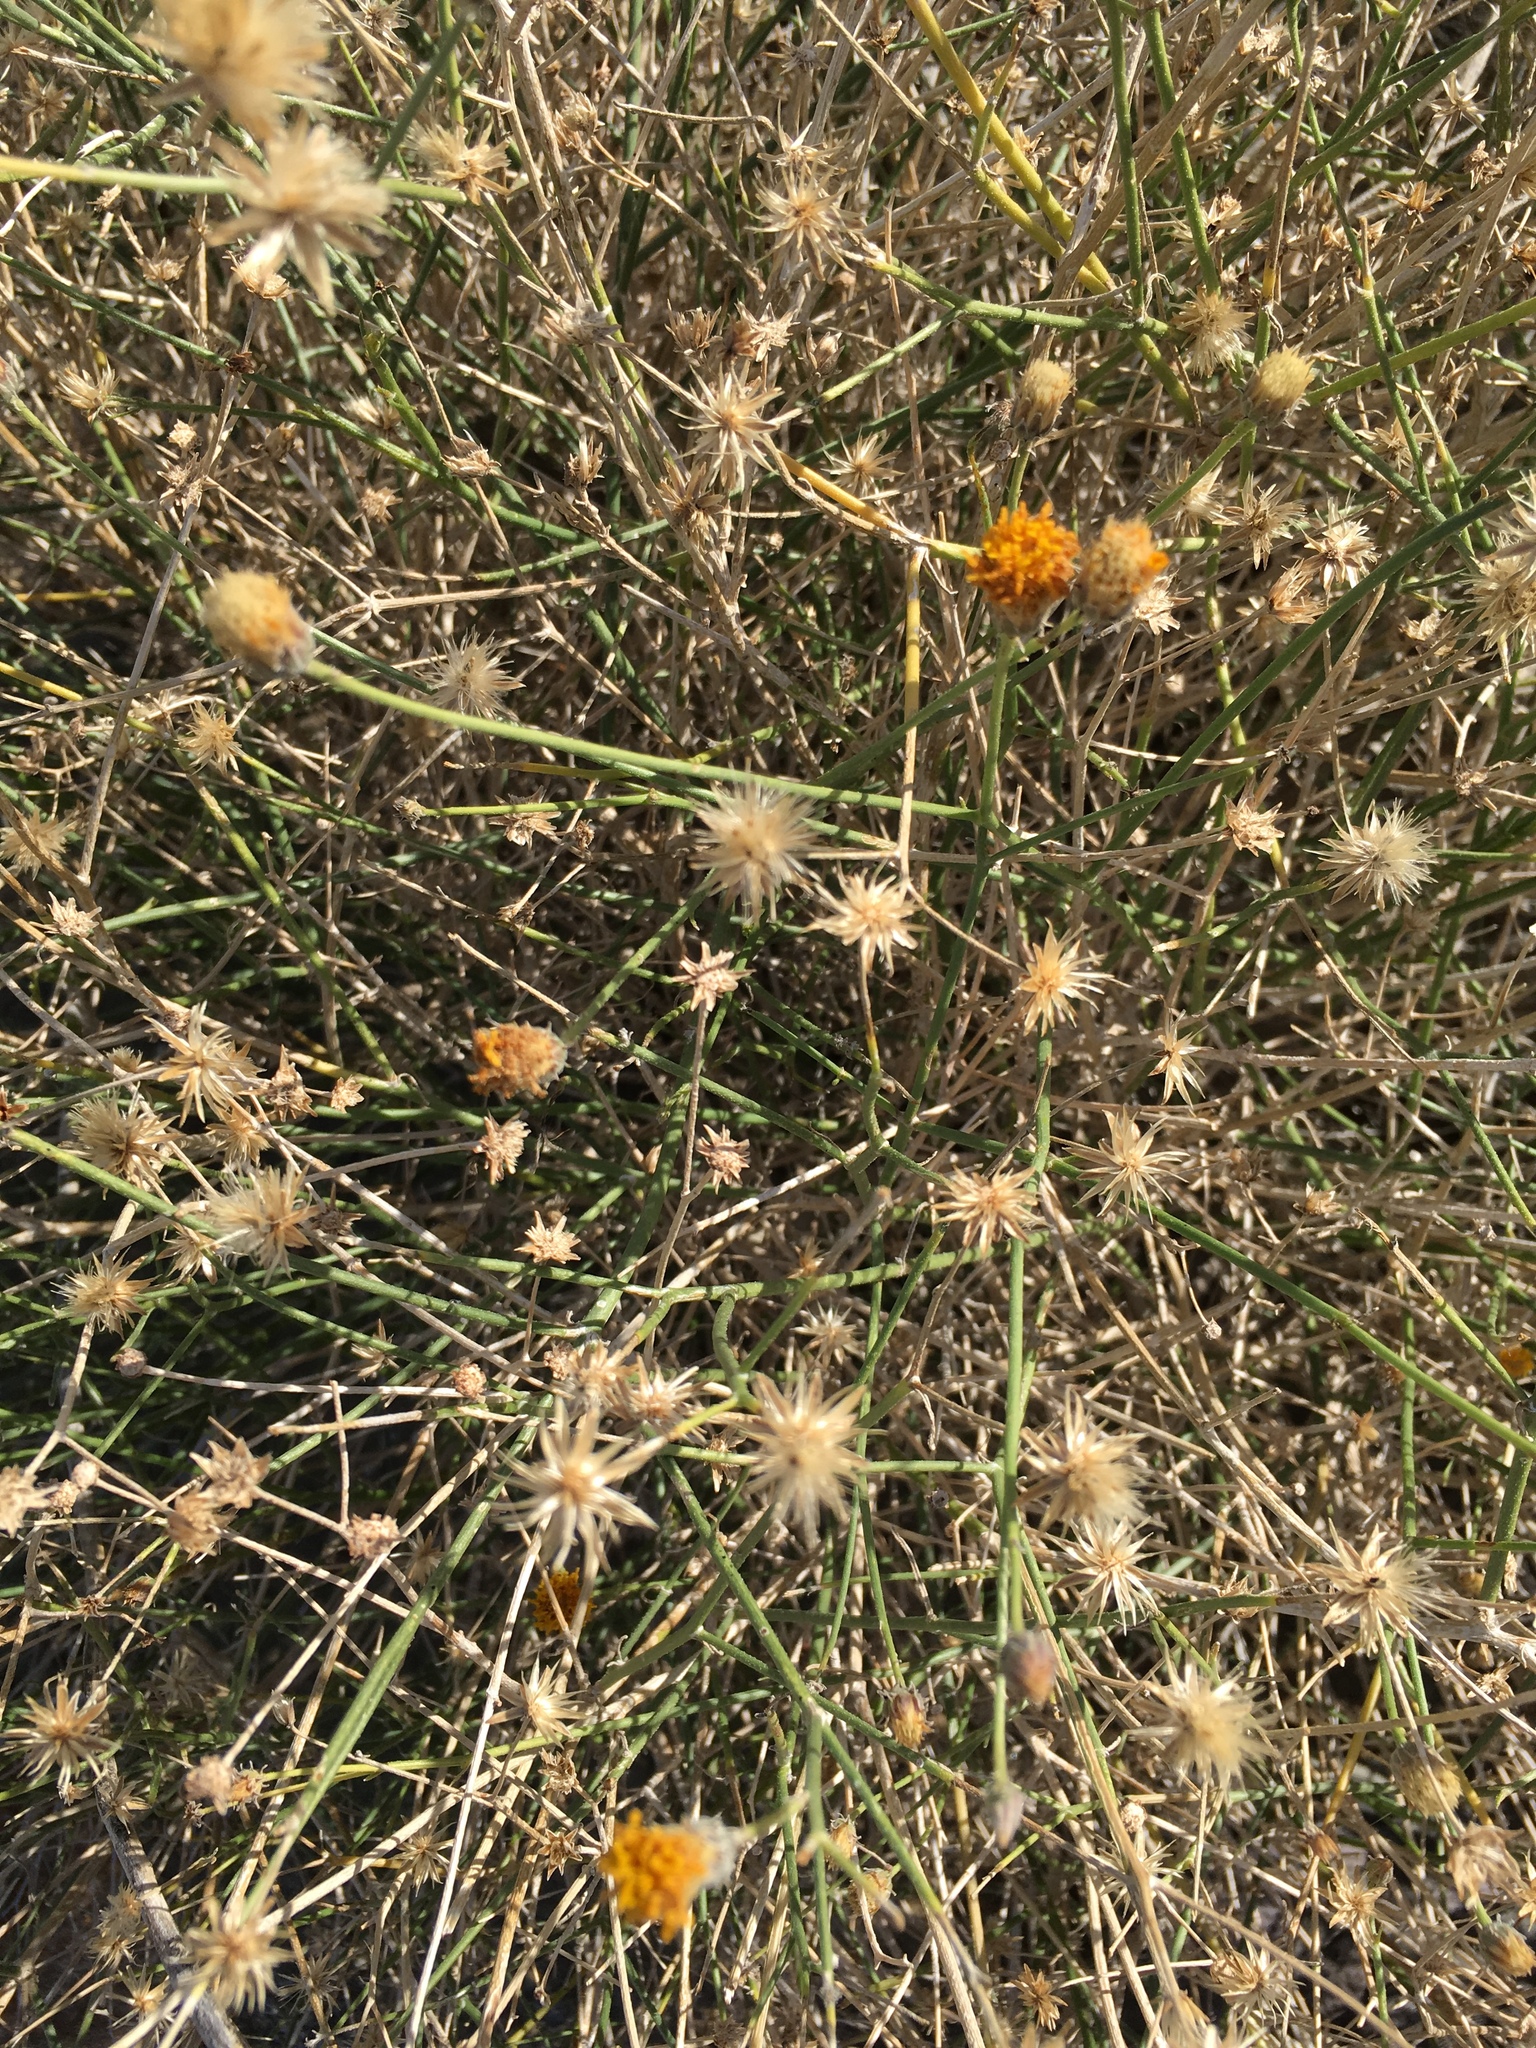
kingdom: Plantae
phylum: Tracheophyta
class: Magnoliopsida
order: Asterales
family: Asteraceae
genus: Bebbia
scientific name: Bebbia juncea
